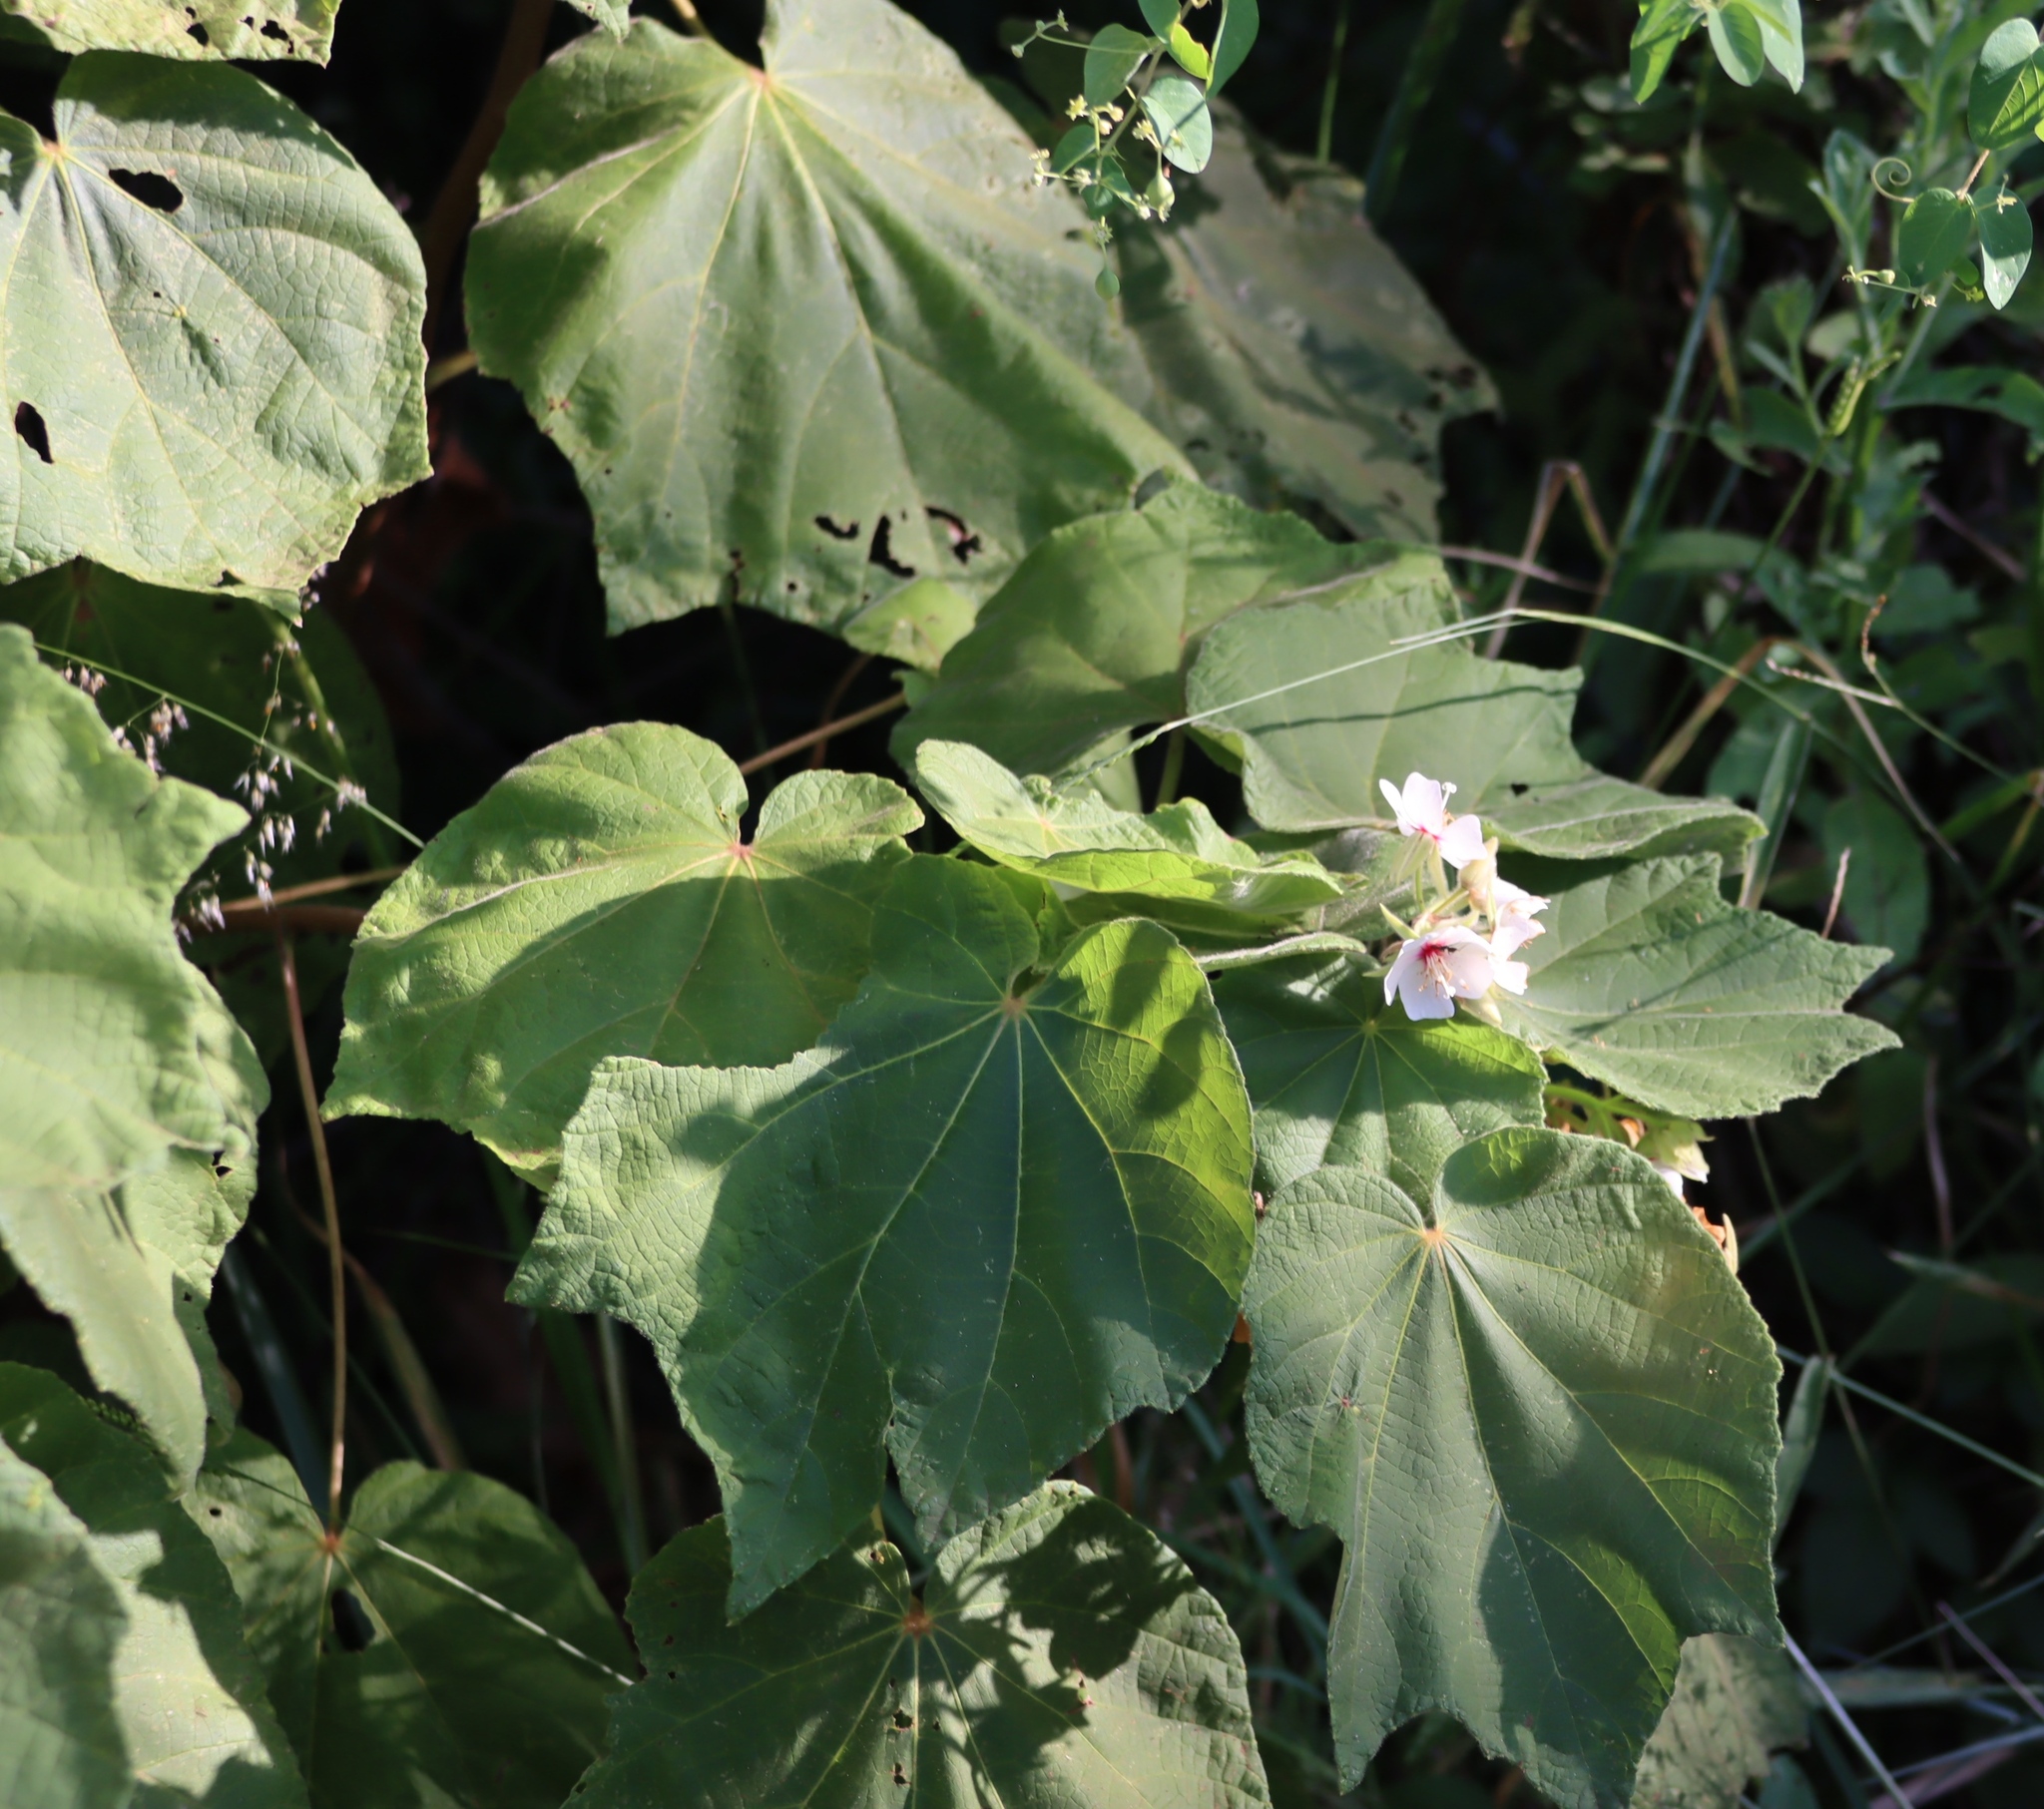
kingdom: Plantae
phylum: Tracheophyta
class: Magnoliopsida
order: Malvales
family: Malvaceae
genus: Dombeya
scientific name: Dombeya burgessiae
